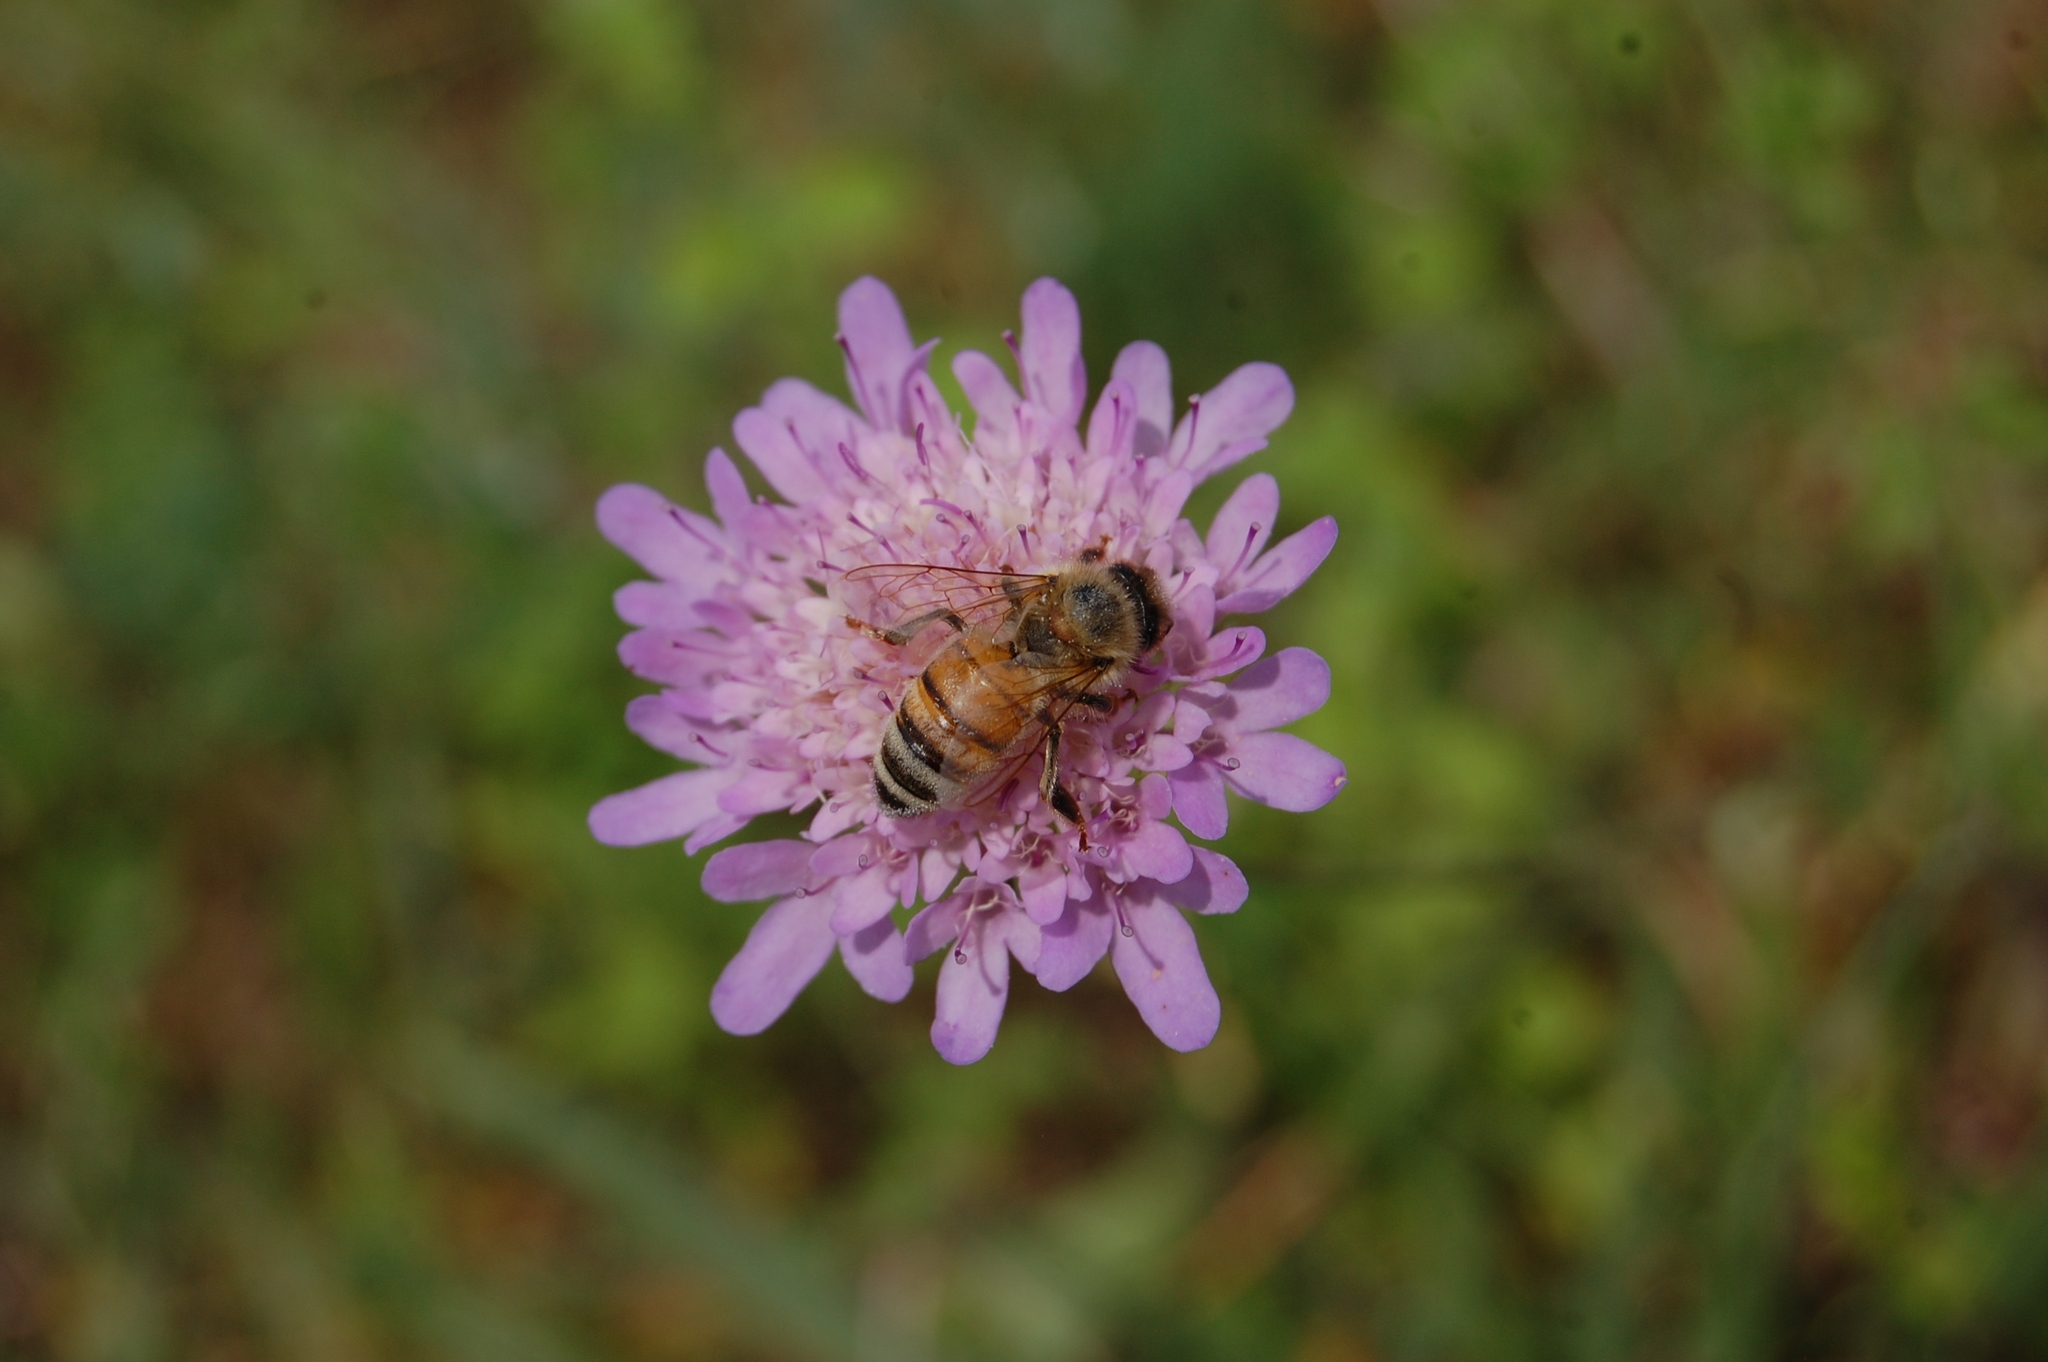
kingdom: Animalia
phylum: Arthropoda
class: Insecta
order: Hymenoptera
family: Apidae
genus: Apis
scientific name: Apis mellifera
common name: Honey bee
